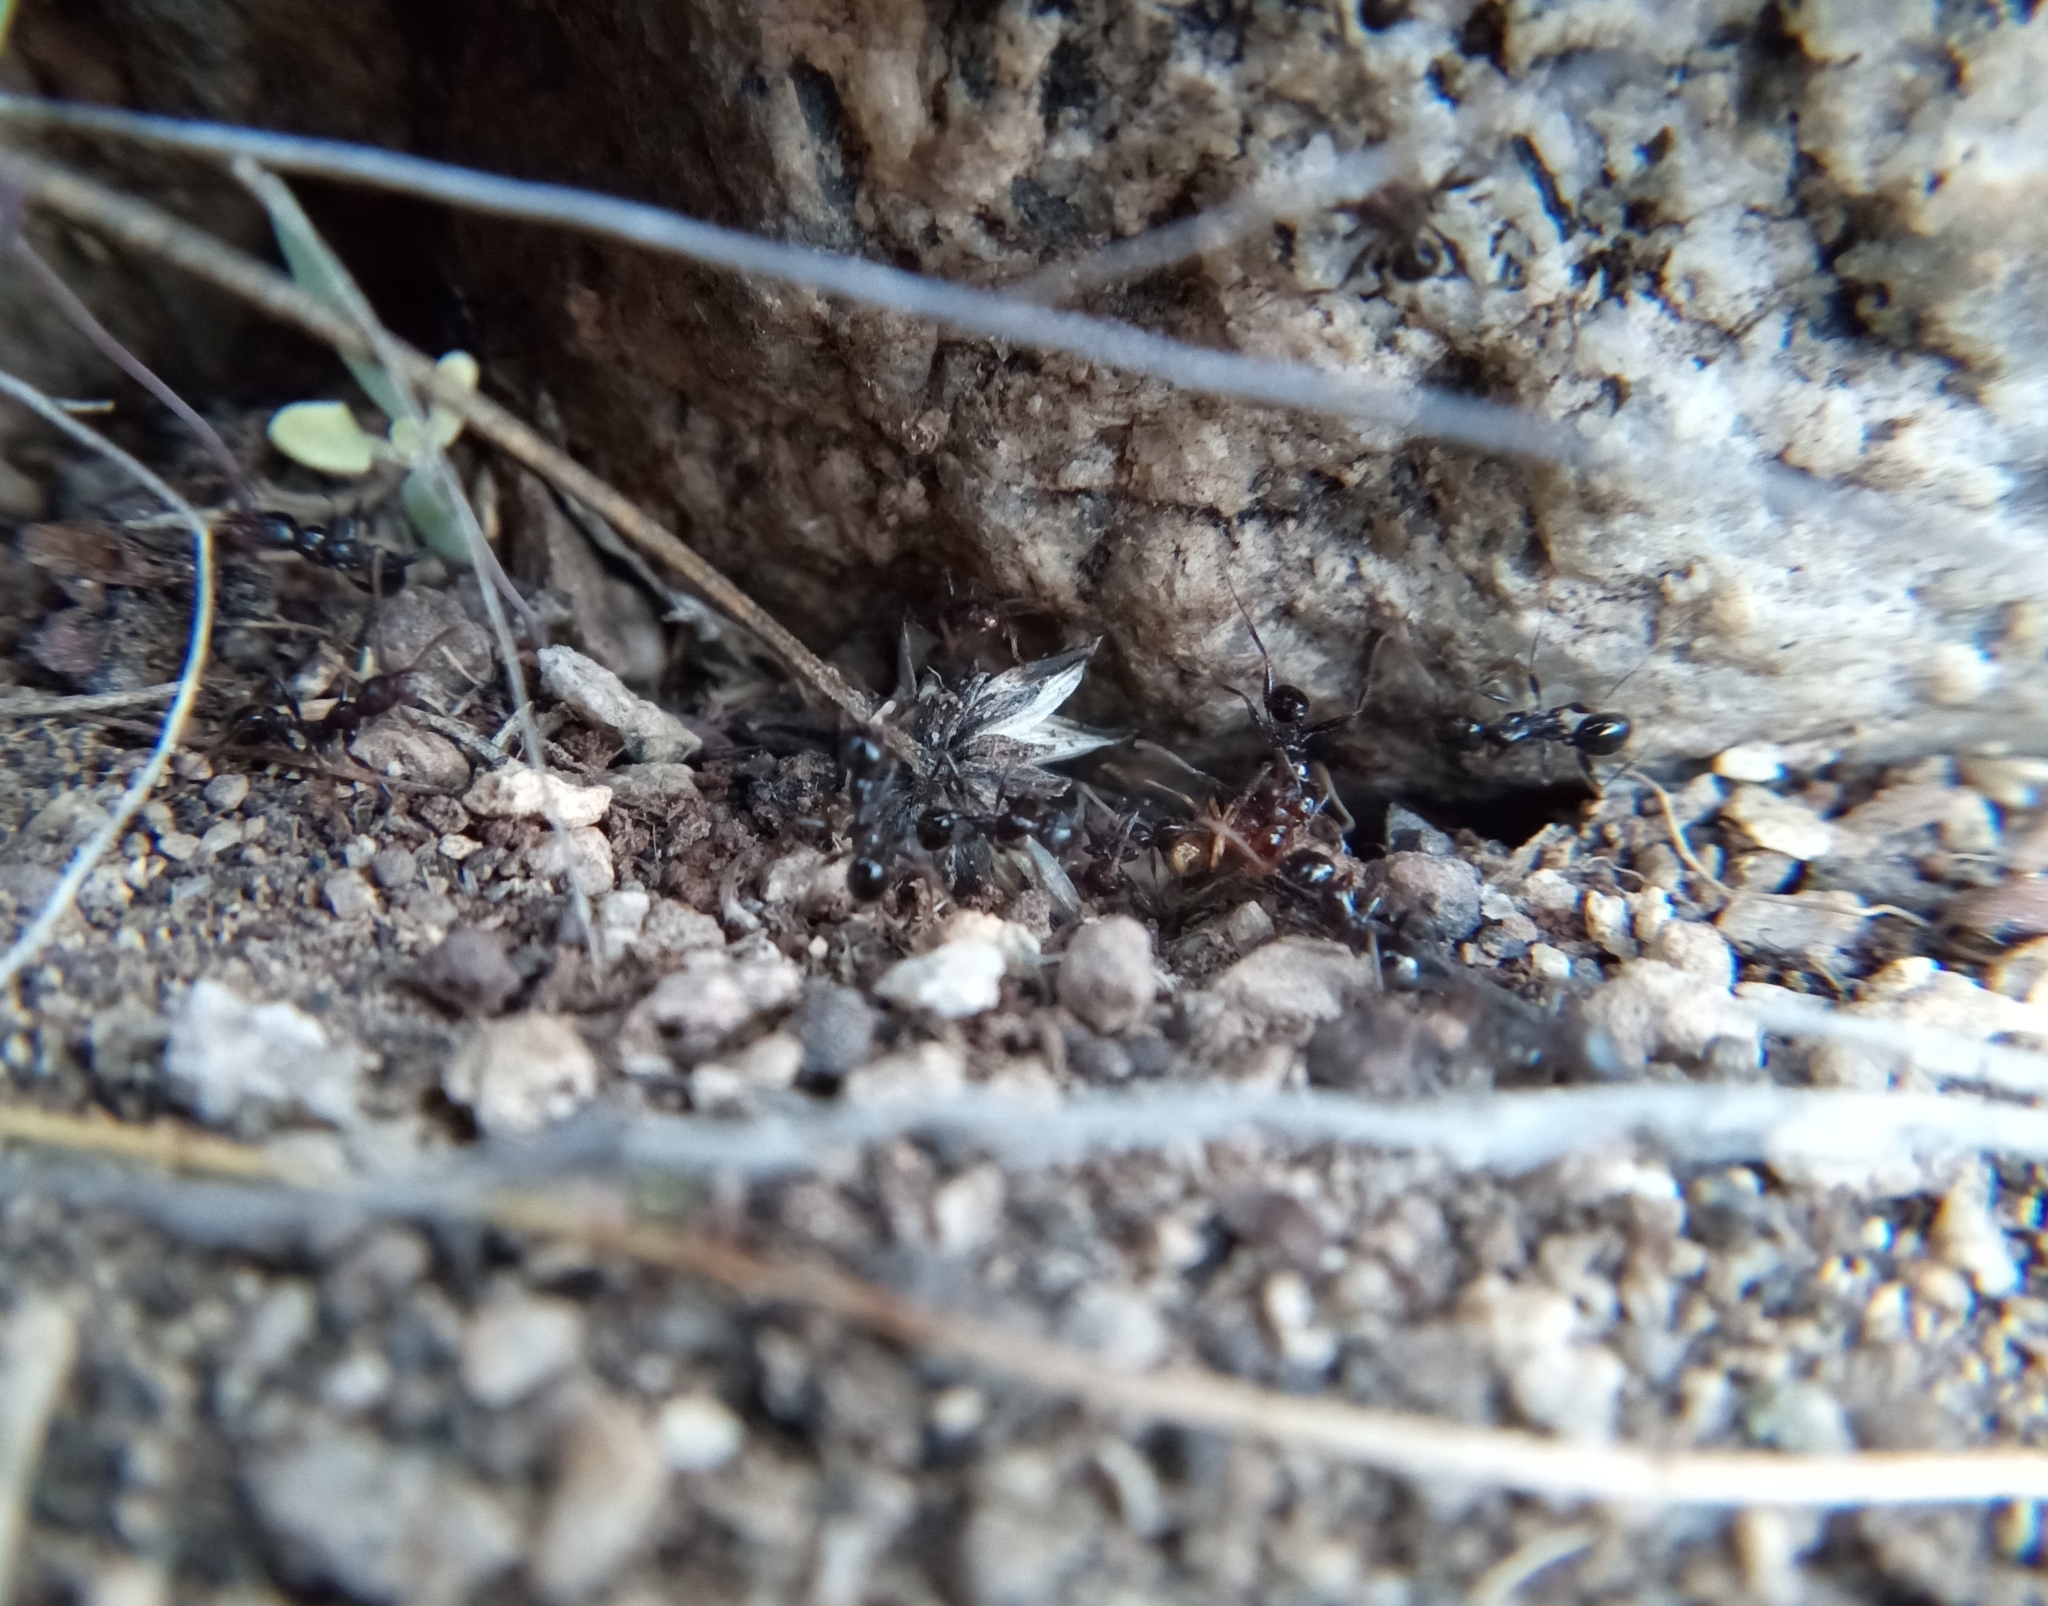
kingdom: Animalia
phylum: Arthropoda
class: Insecta
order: Hymenoptera
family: Formicidae
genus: Pheidole
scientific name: Pheidole rhea
